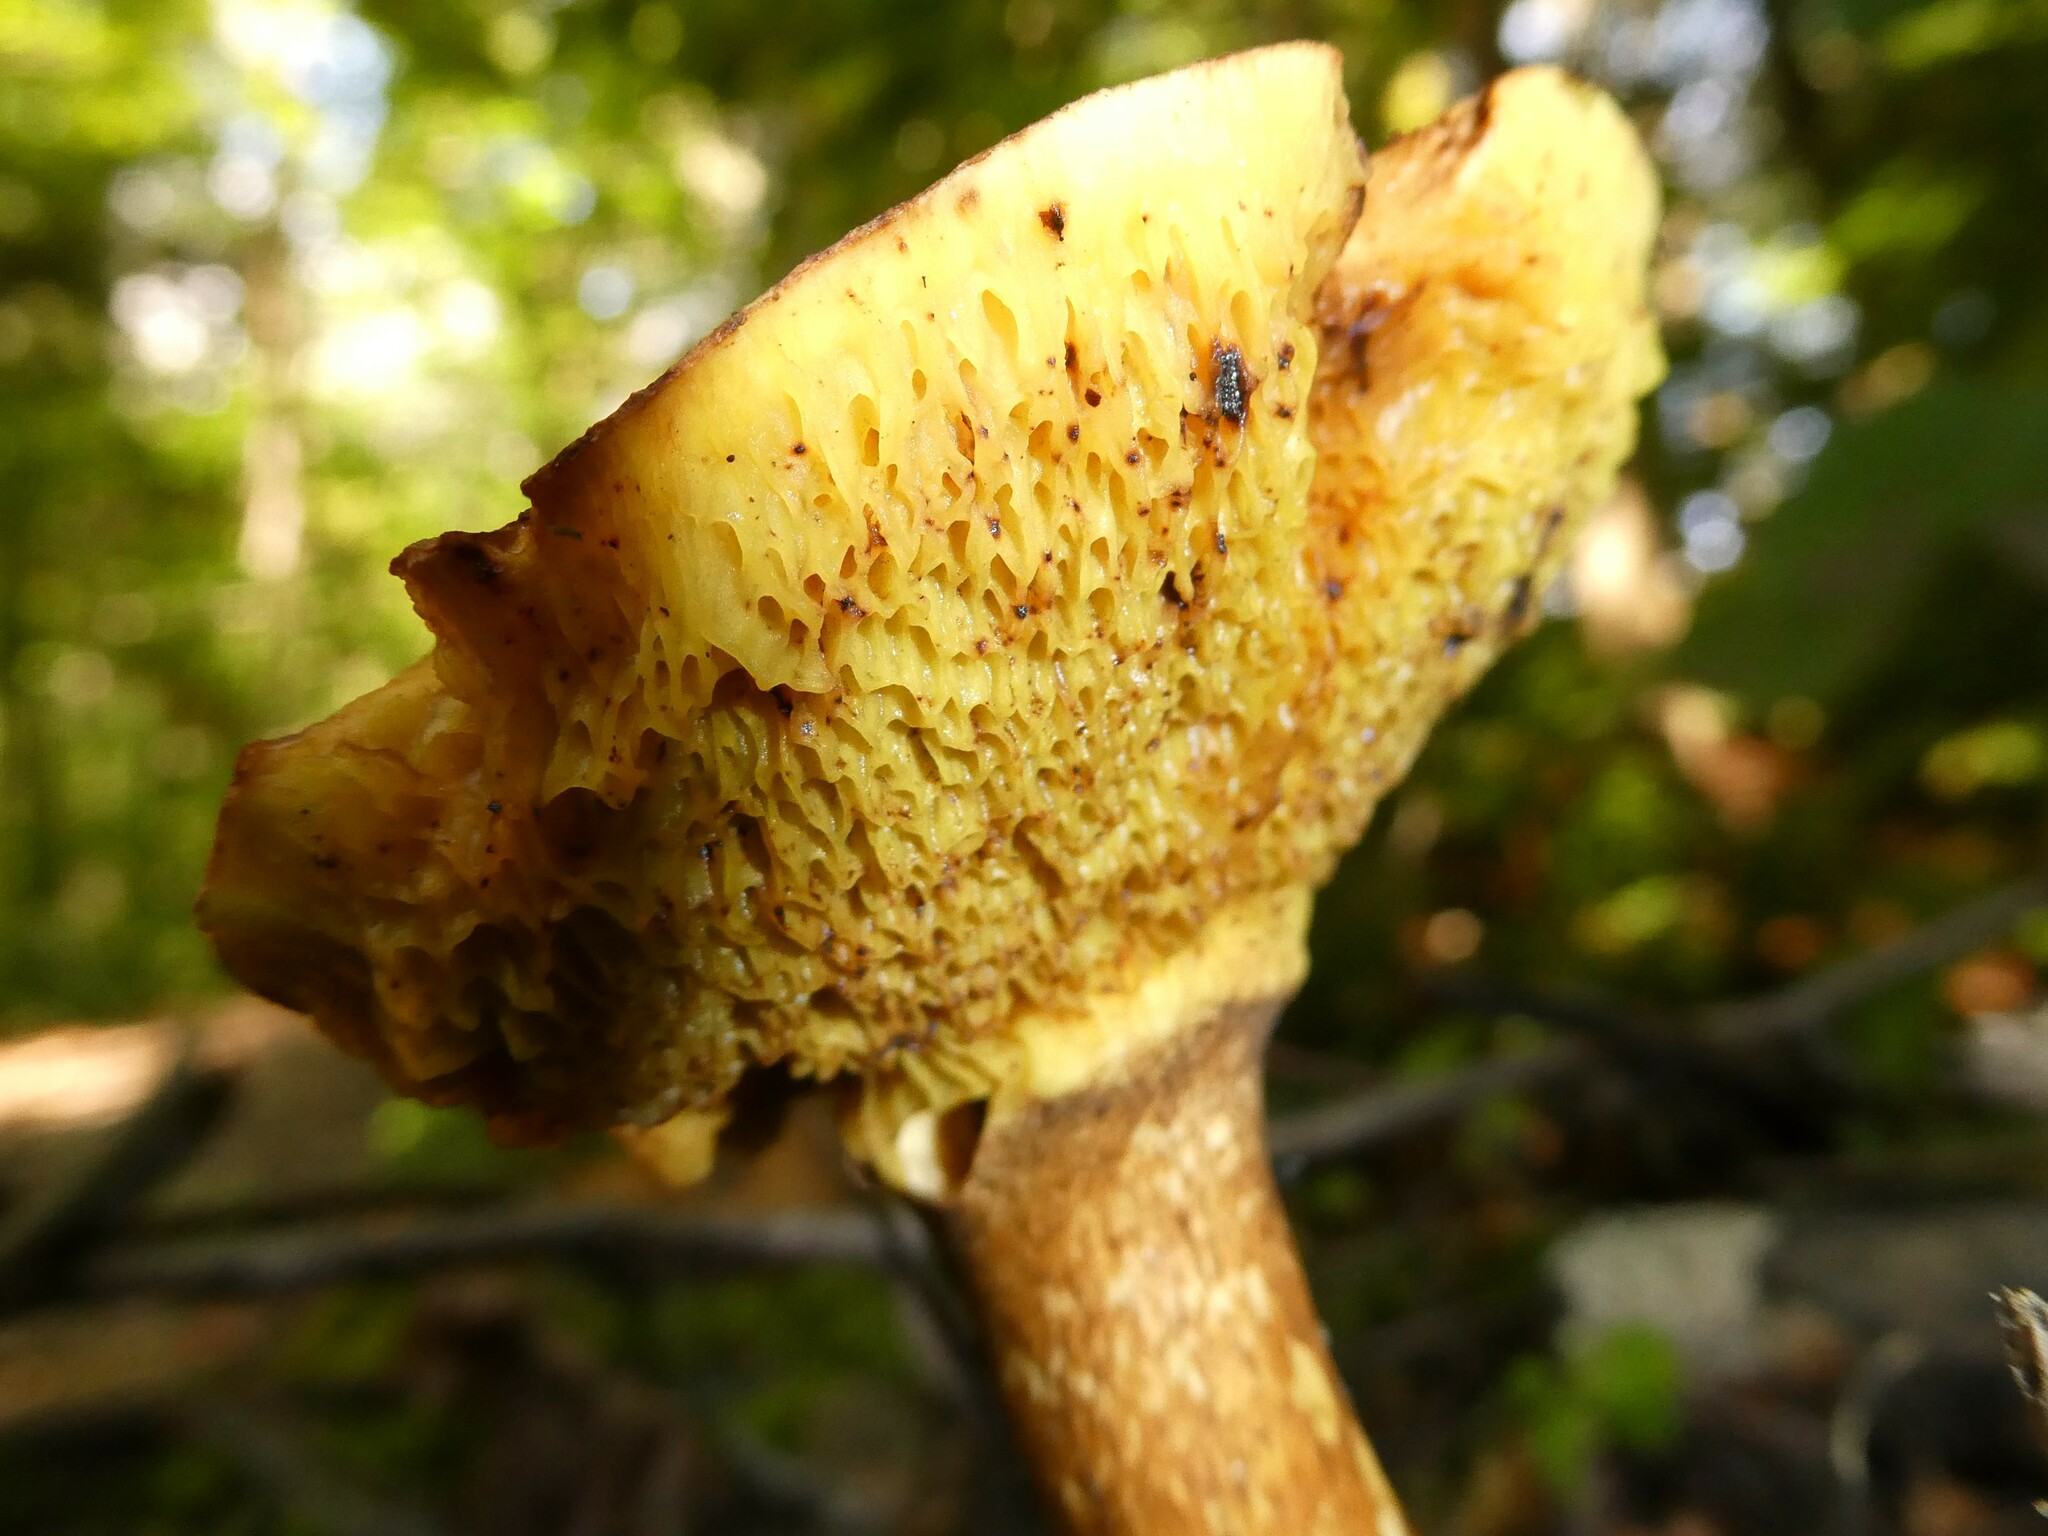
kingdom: Fungi
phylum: Basidiomycota
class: Agaricomycetes
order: Boletales
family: Sclerodermataceae
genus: Scleroderma
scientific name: Scleroderma citrinum
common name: Common earthball
